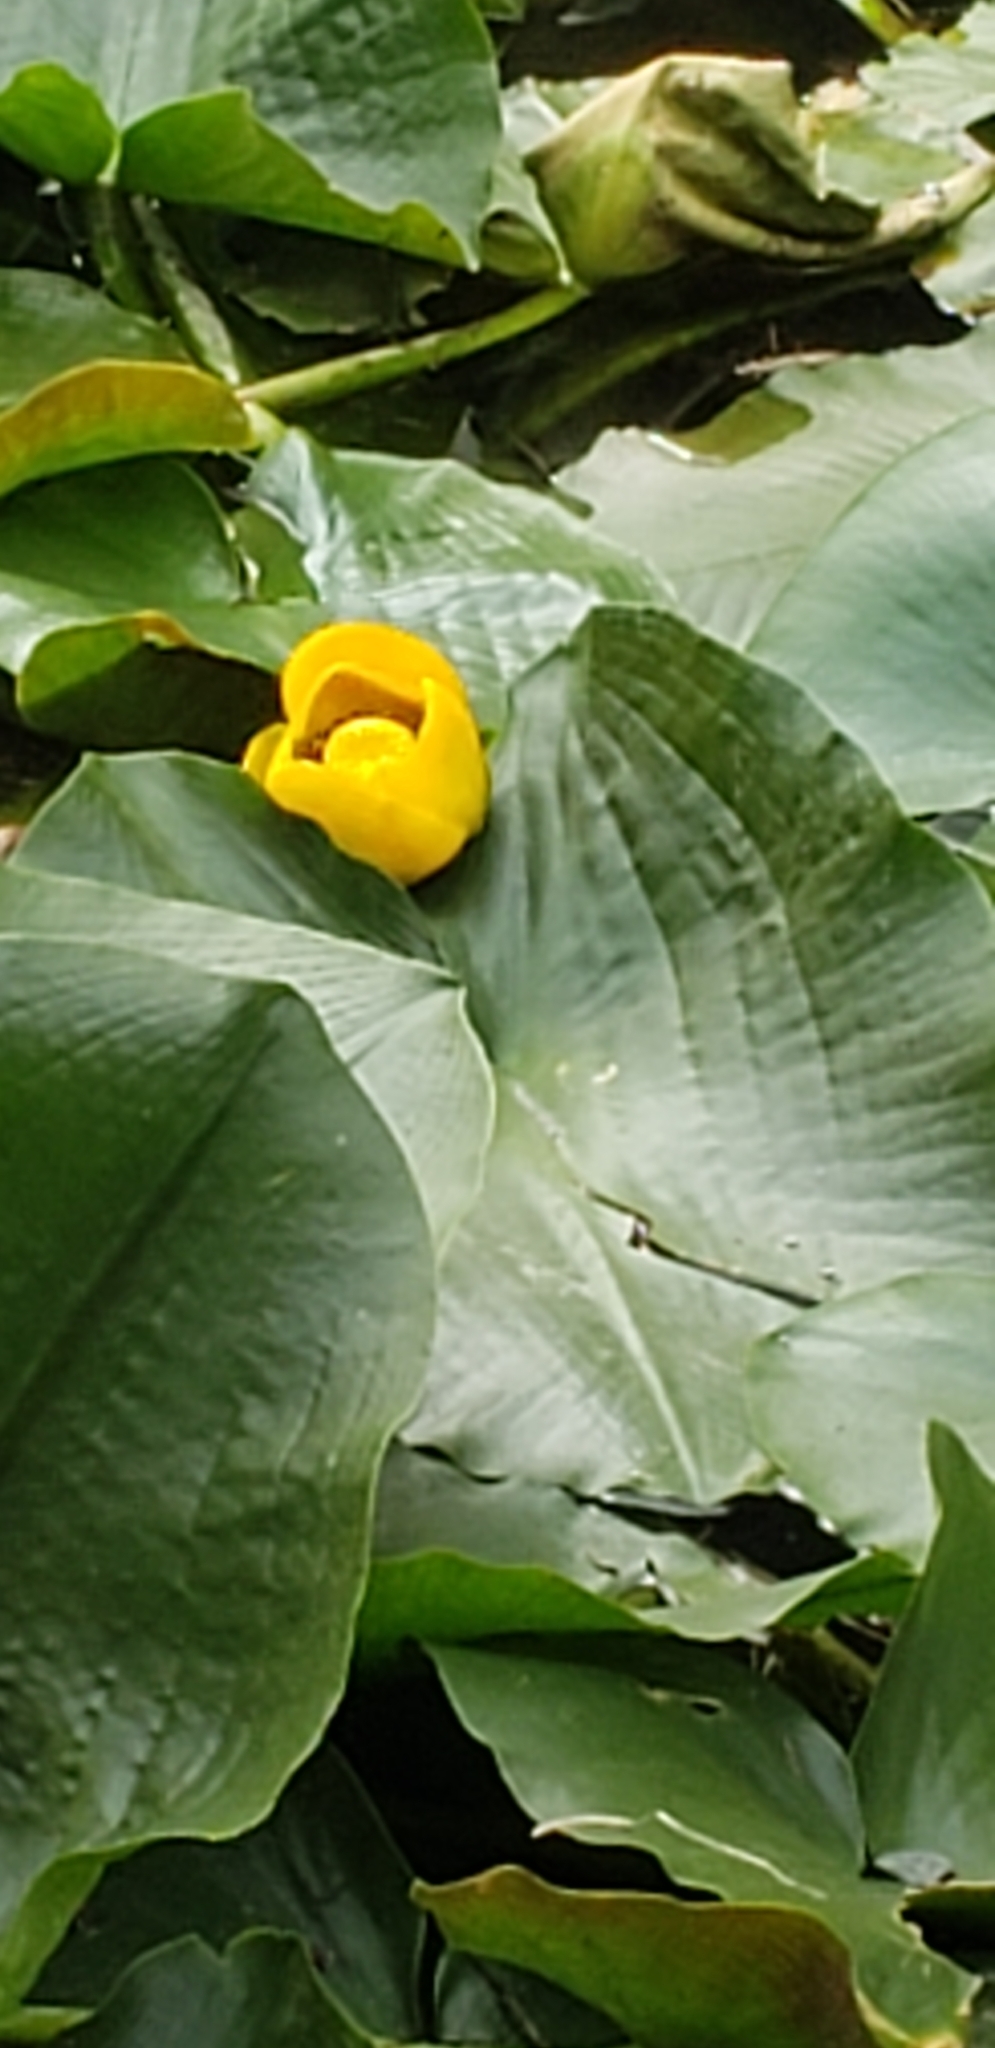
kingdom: Plantae
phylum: Tracheophyta
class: Magnoliopsida
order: Nymphaeales
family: Nymphaeaceae
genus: Nuphar
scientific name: Nuphar polysepala
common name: Rocky mountain cow-lily
